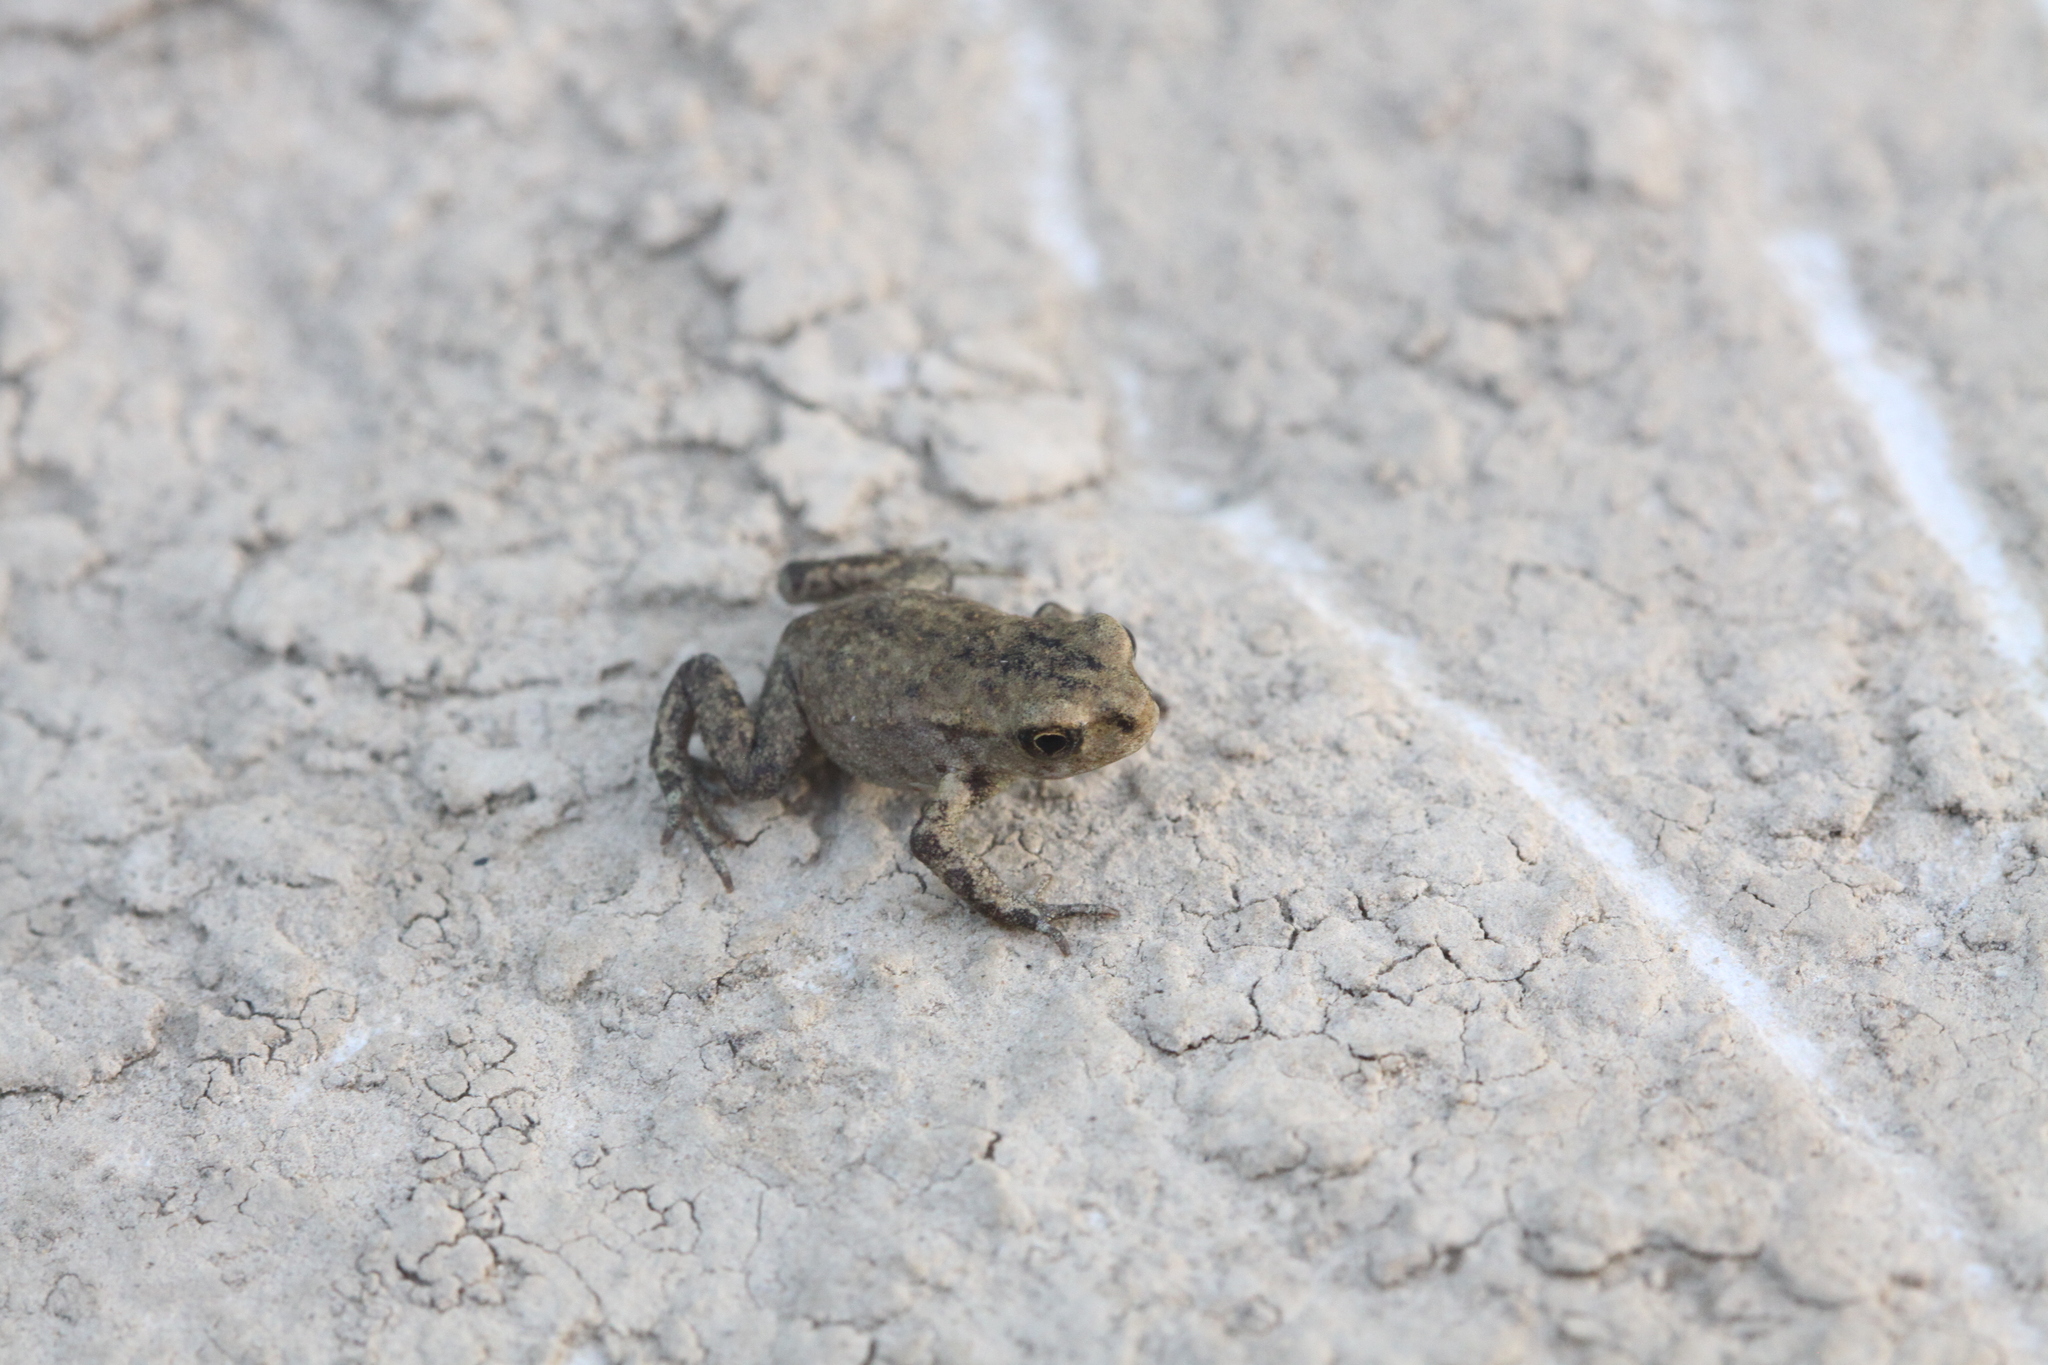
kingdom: Animalia
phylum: Chordata
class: Amphibia
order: Anura
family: Bufonidae
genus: Bufo
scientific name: Bufo spinosus
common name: Western common toad
